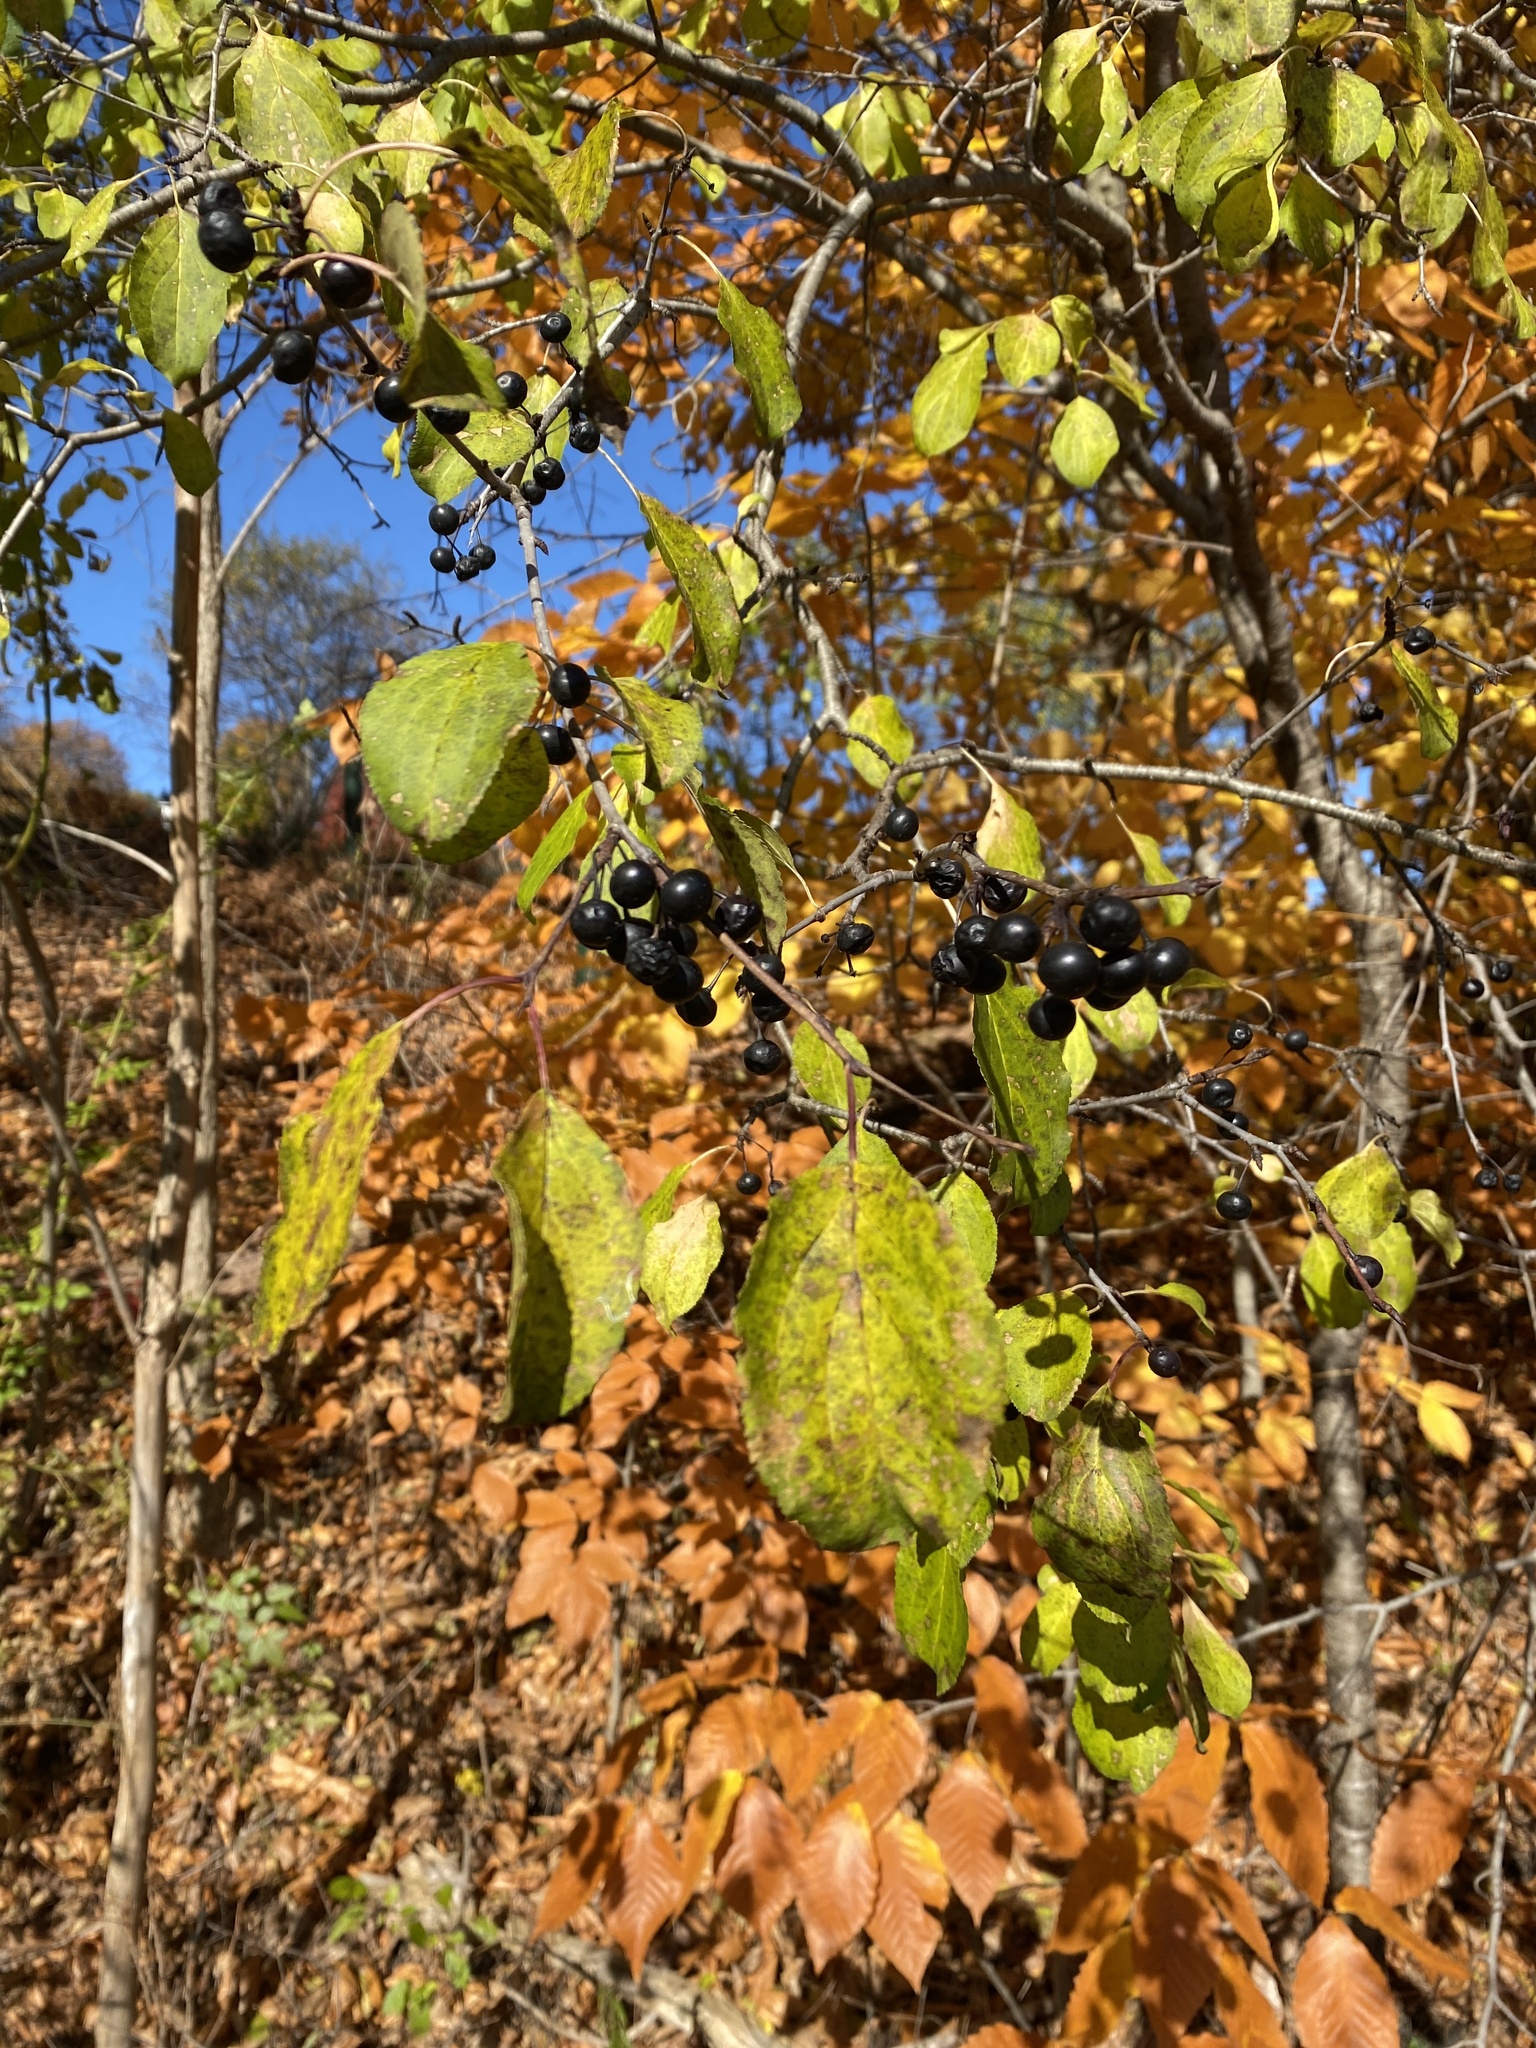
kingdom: Plantae
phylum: Tracheophyta
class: Magnoliopsida
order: Rosales
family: Rhamnaceae
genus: Rhamnus
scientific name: Rhamnus cathartica
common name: Common buckthorn
